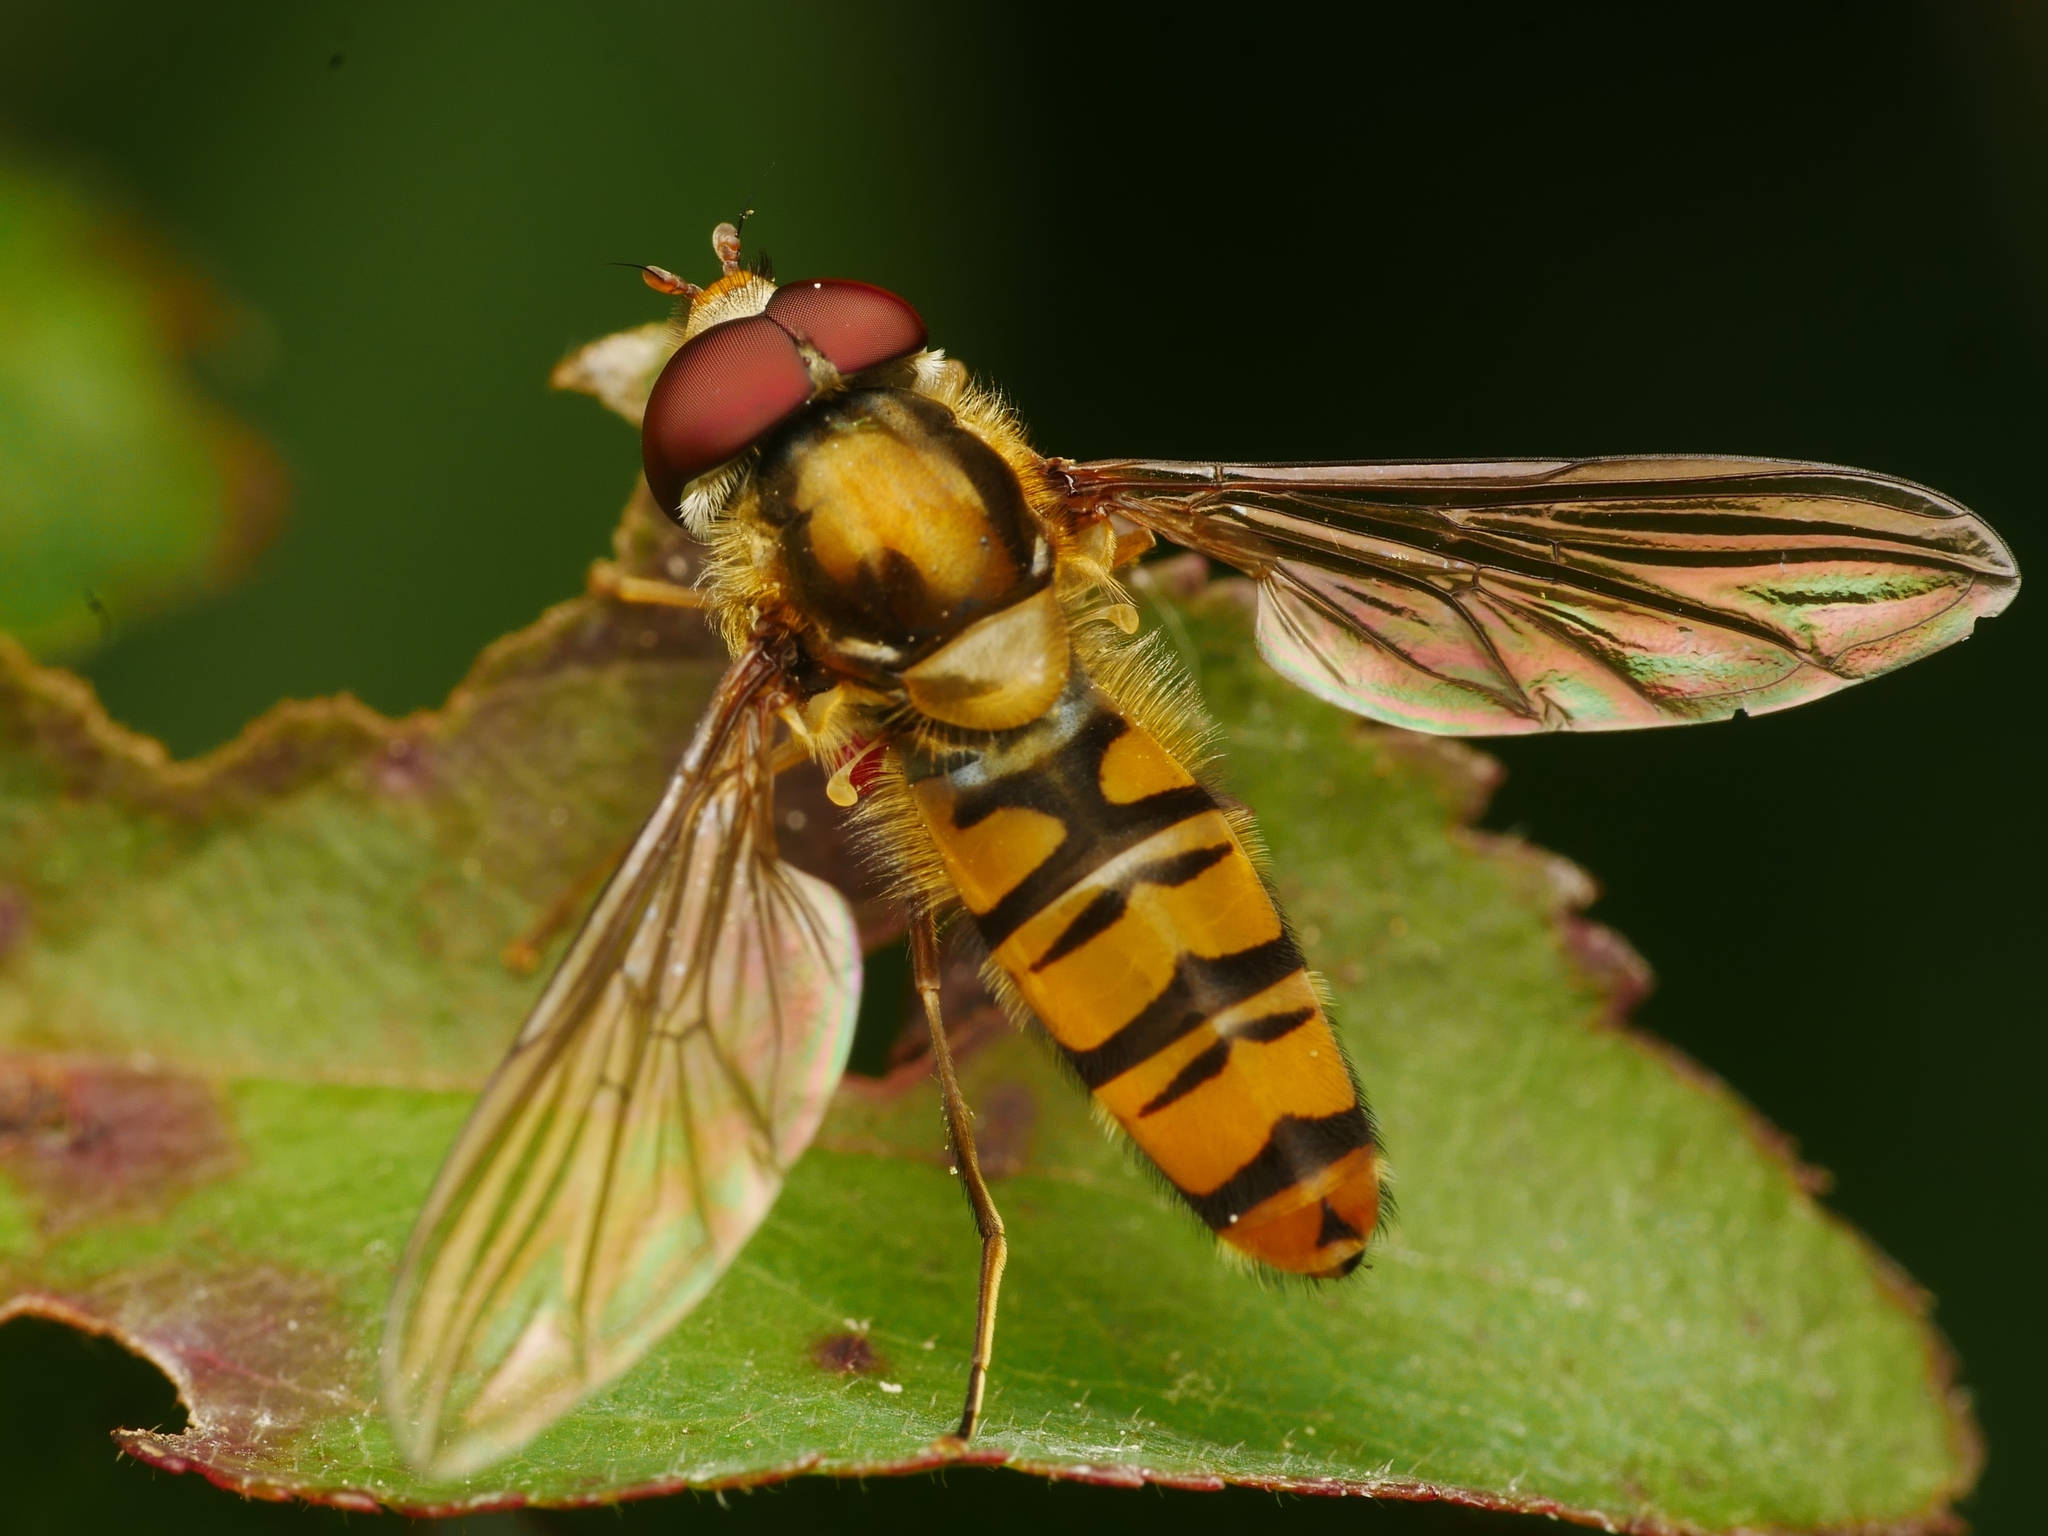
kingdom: Animalia
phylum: Arthropoda
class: Insecta
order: Diptera
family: Syrphidae
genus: Episyrphus
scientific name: Episyrphus balteatus
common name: Marmalade hoverfly
